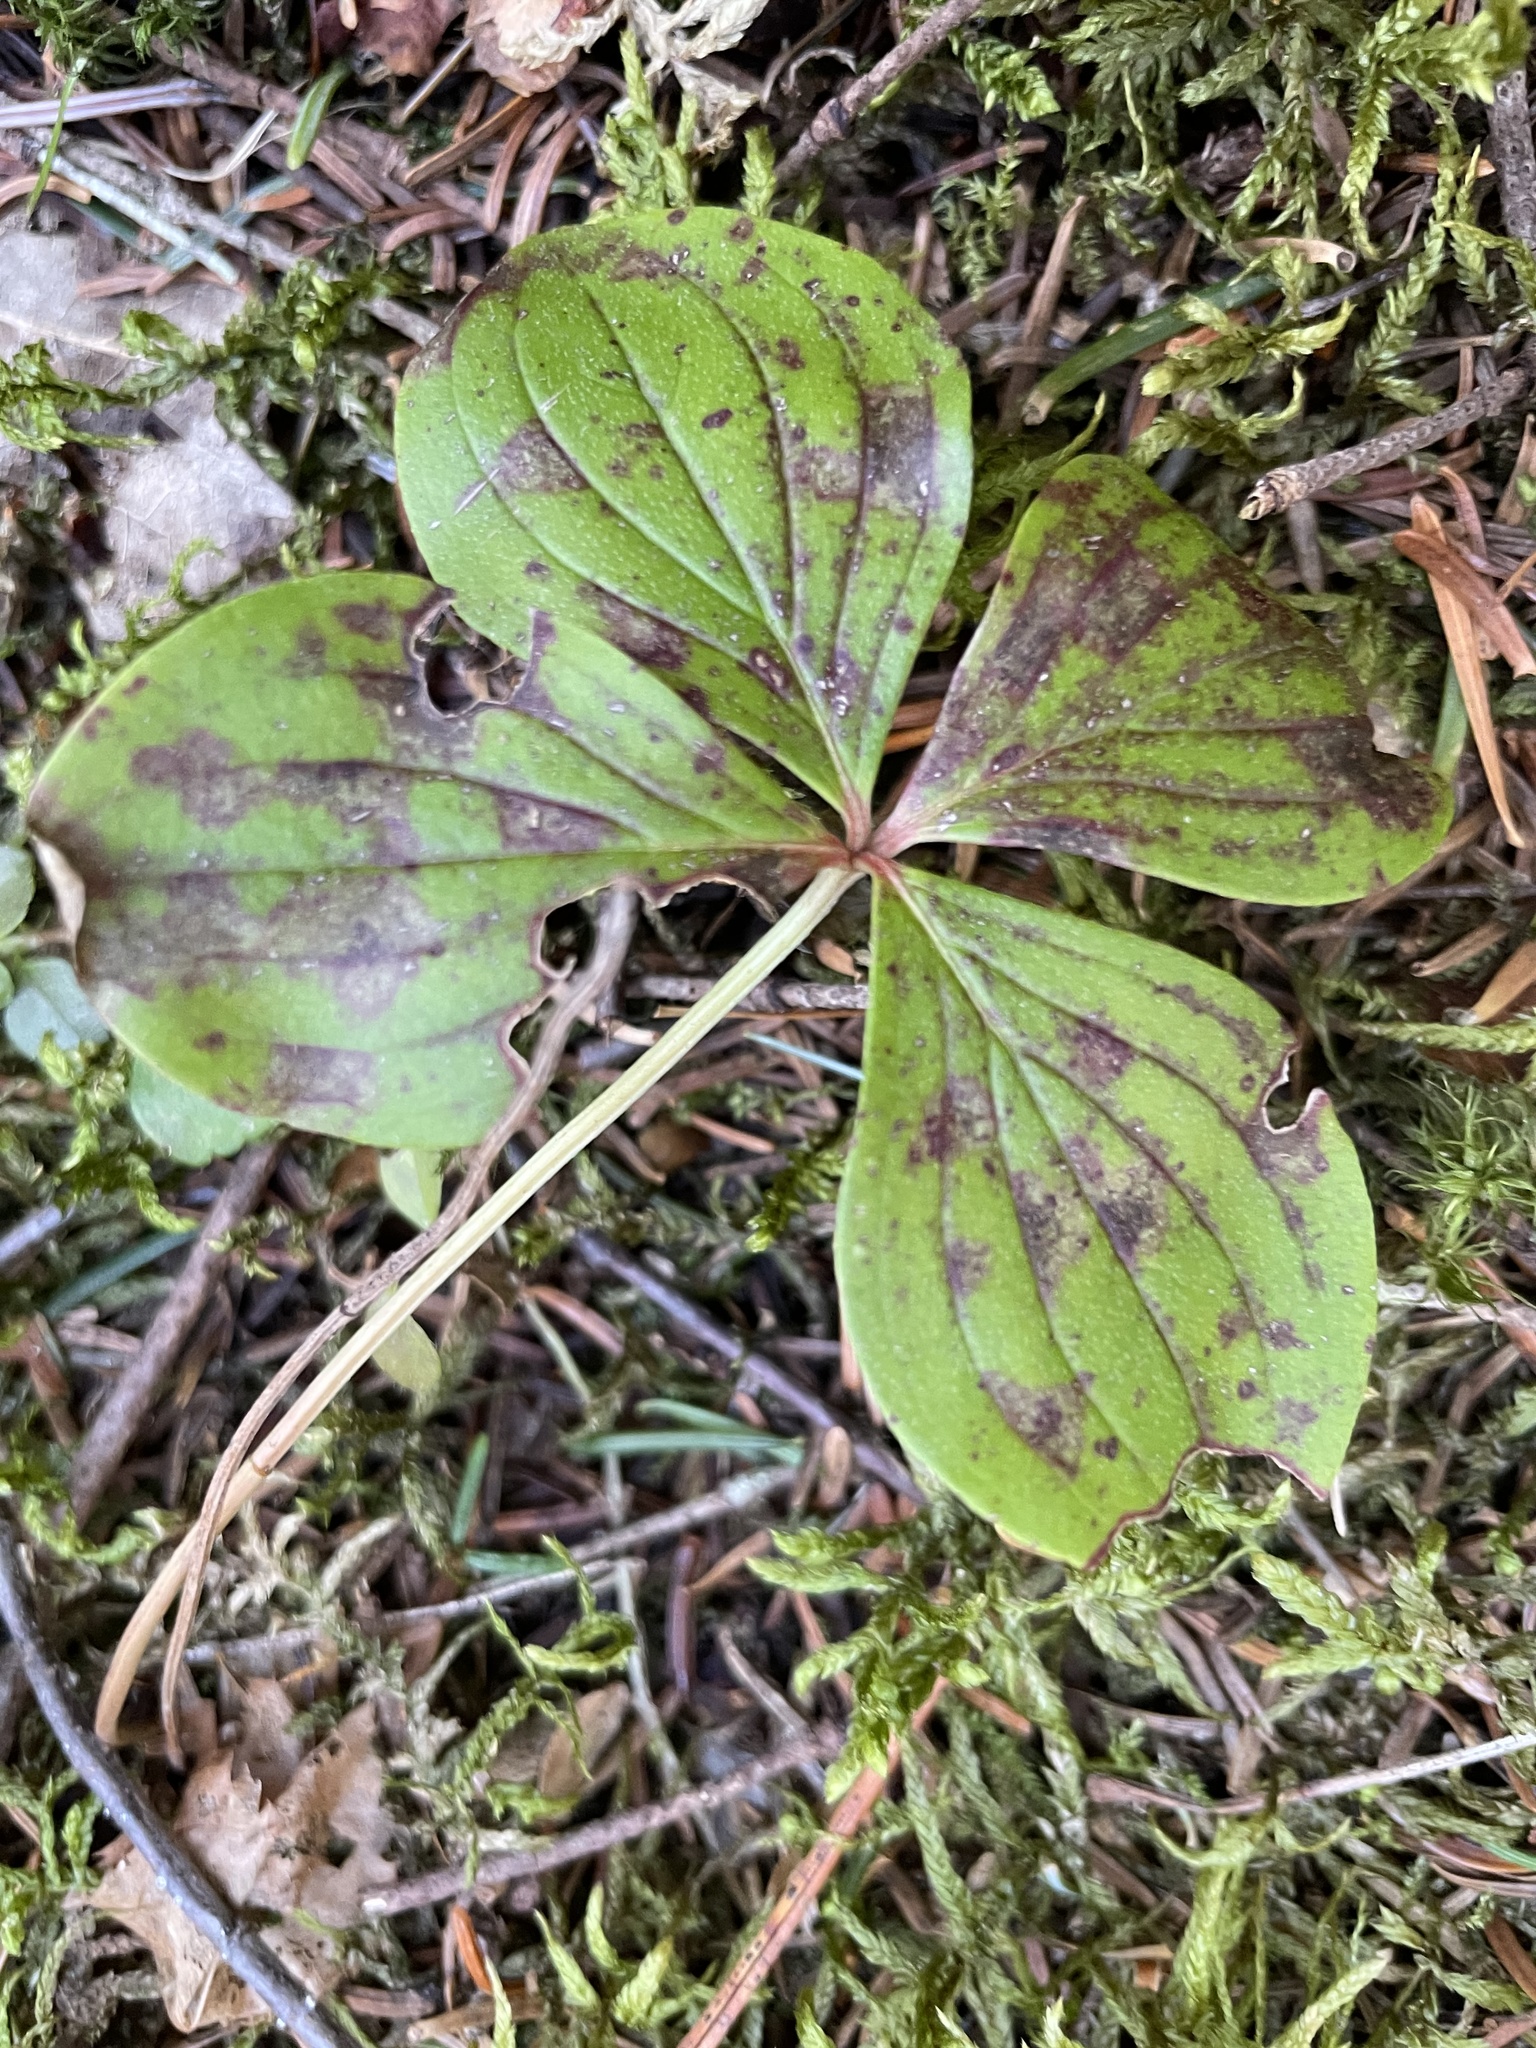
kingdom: Plantae
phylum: Tracheophyta
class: Magnoliopsida
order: Cornales
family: Cornaceae
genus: Cornus
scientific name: Cornus canadensis
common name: Creeping dogwood
